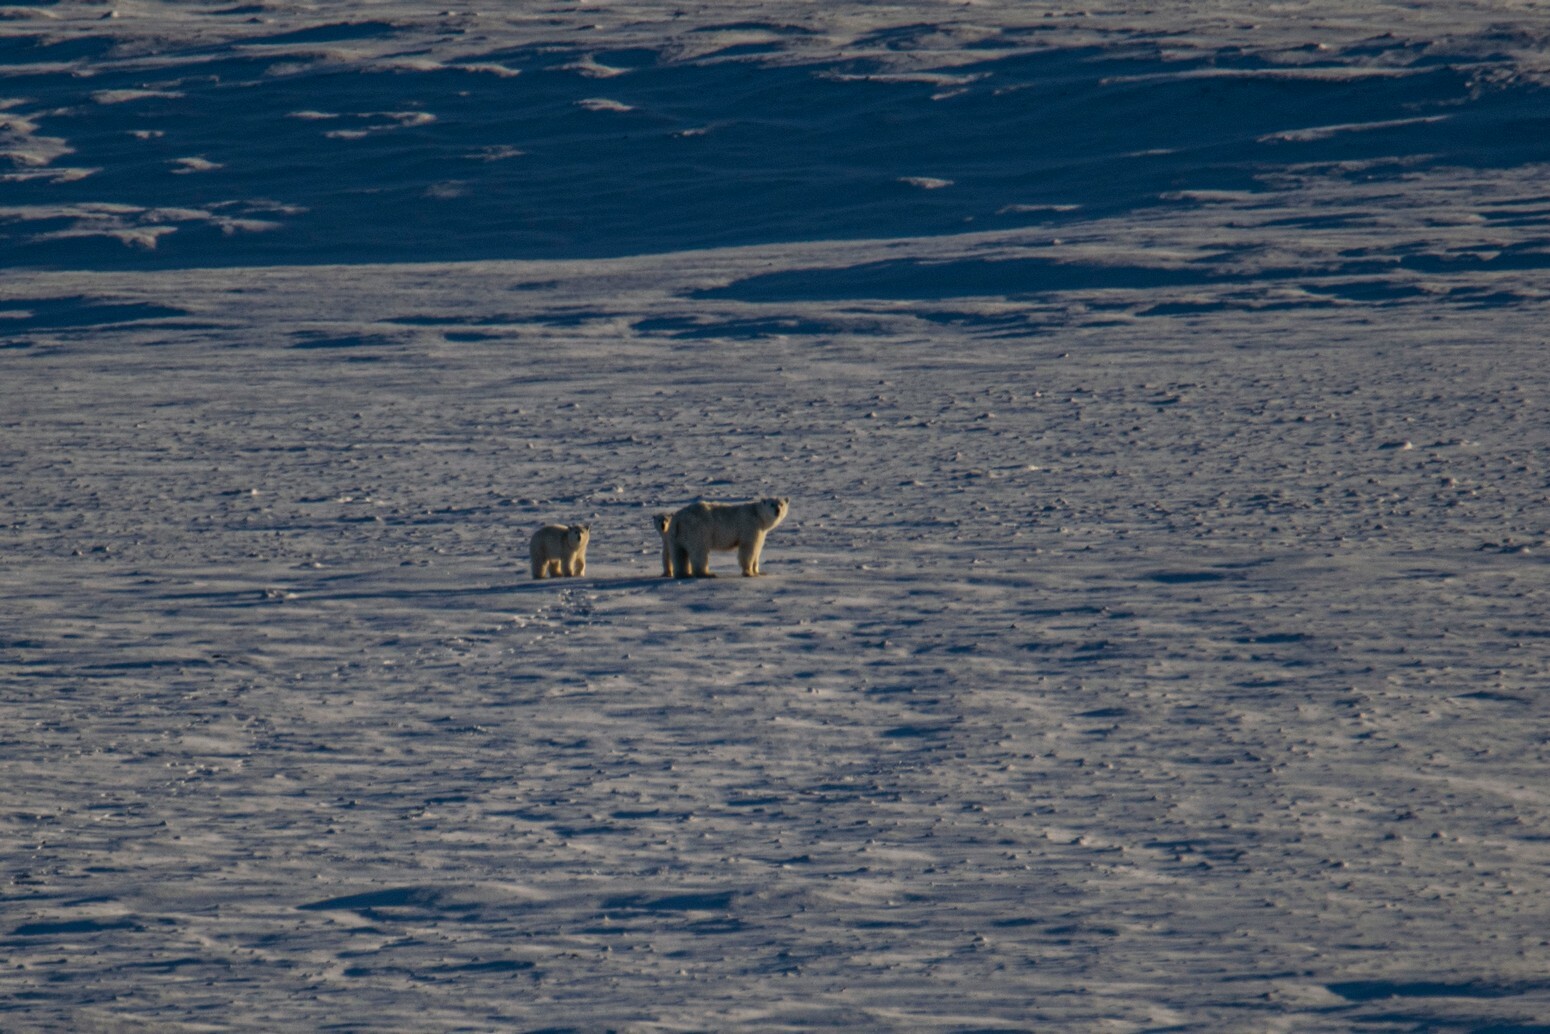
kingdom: Animalia
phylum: Chordata
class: Mammalia
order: Carnivora
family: Ursidae
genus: Ursus
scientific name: Ursus maritimus
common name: Polar bear
